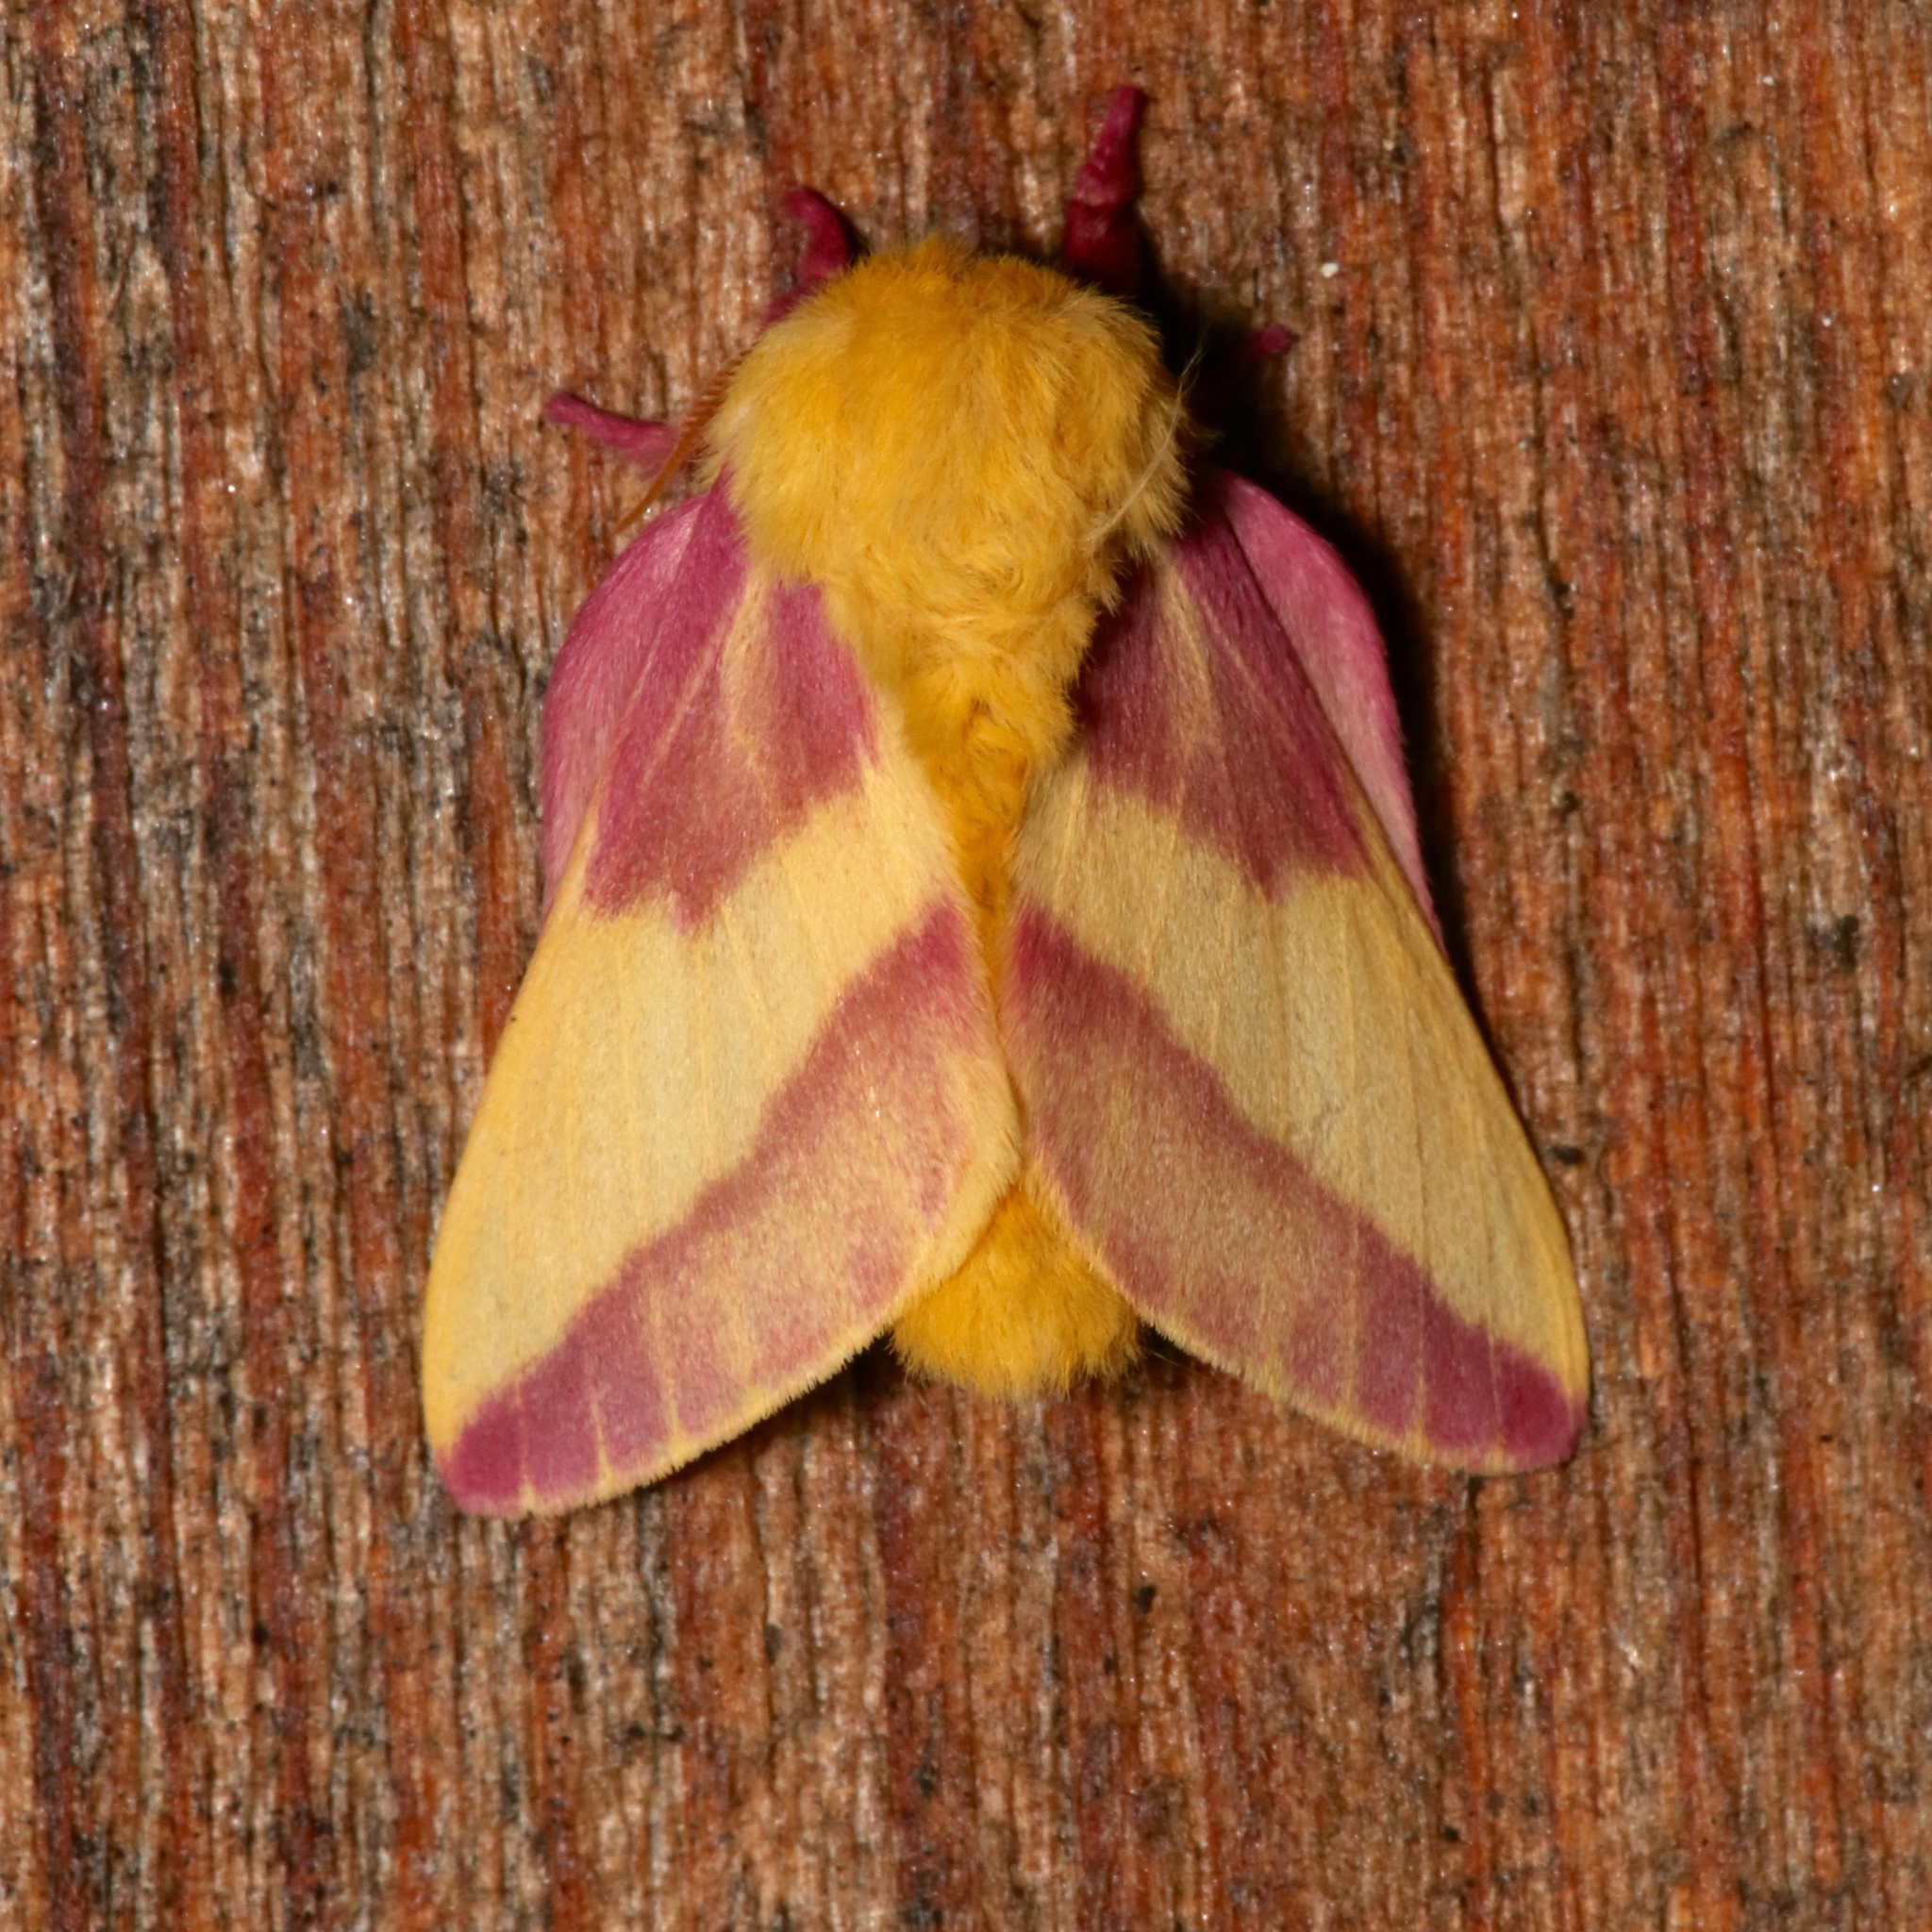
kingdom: Animalia
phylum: Arthropoda
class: Insecta
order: Lepidoptera
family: Saturniidae
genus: Dryocampa
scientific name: Dryocampa rubicunda
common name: Rosy maple moth
